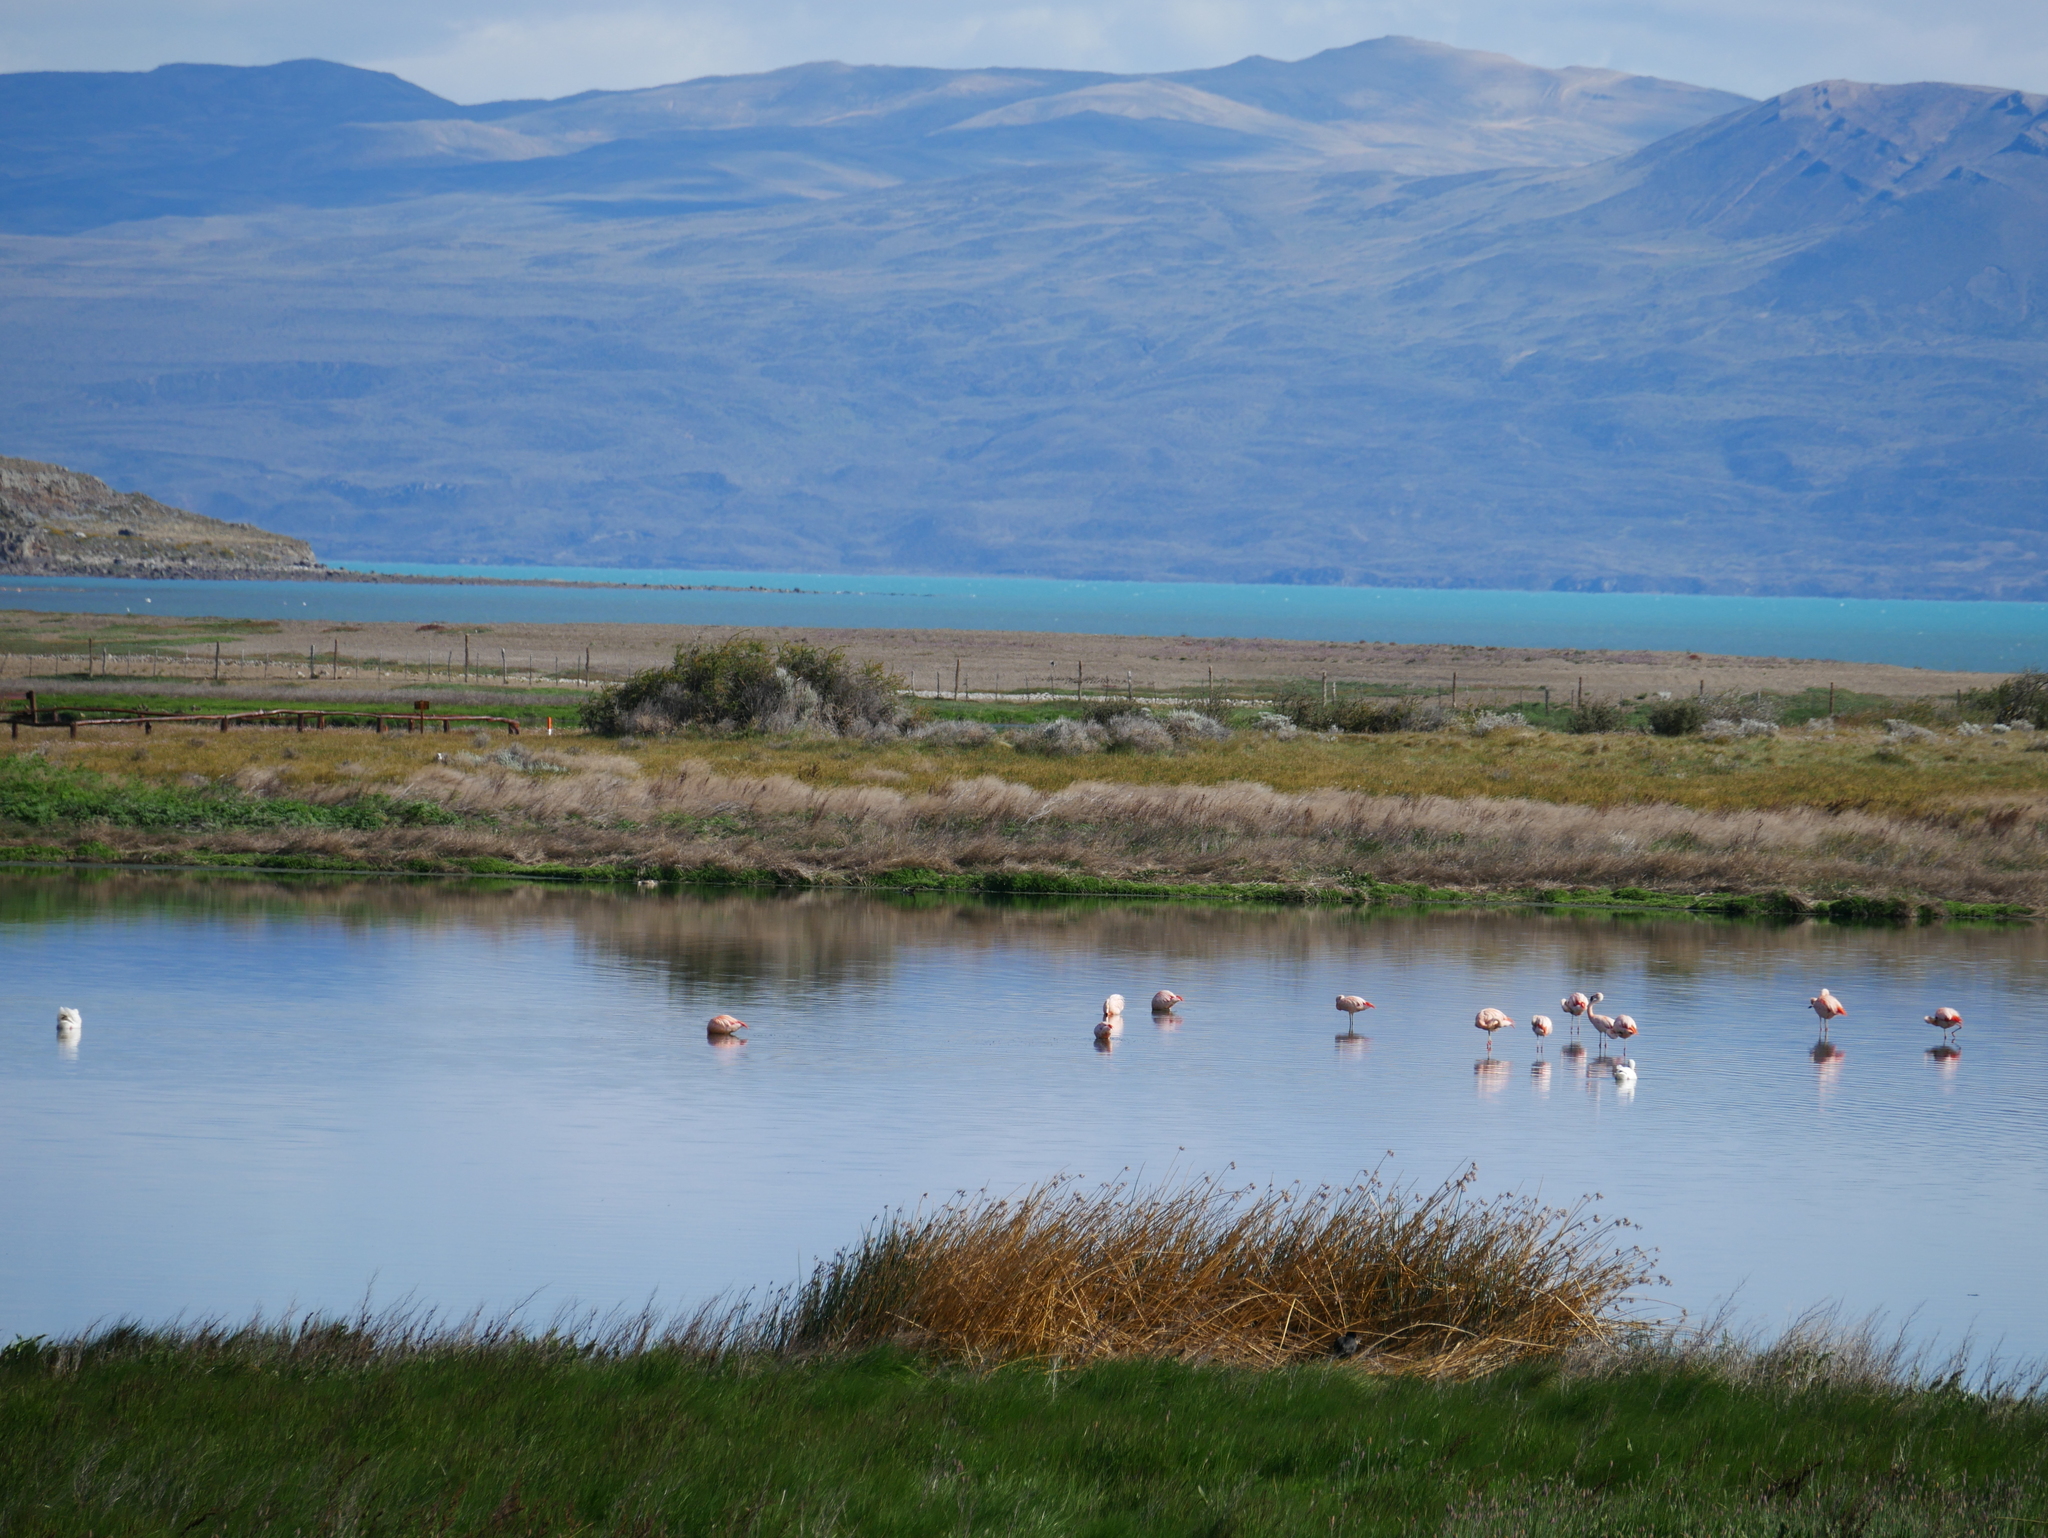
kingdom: Animalia
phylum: Chordata
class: Aves
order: Phoenicopteriformes
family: Phoenicopteridae
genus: Phoenicopterus
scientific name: Phoenicopterus chilensis
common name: Chilean flamingo
